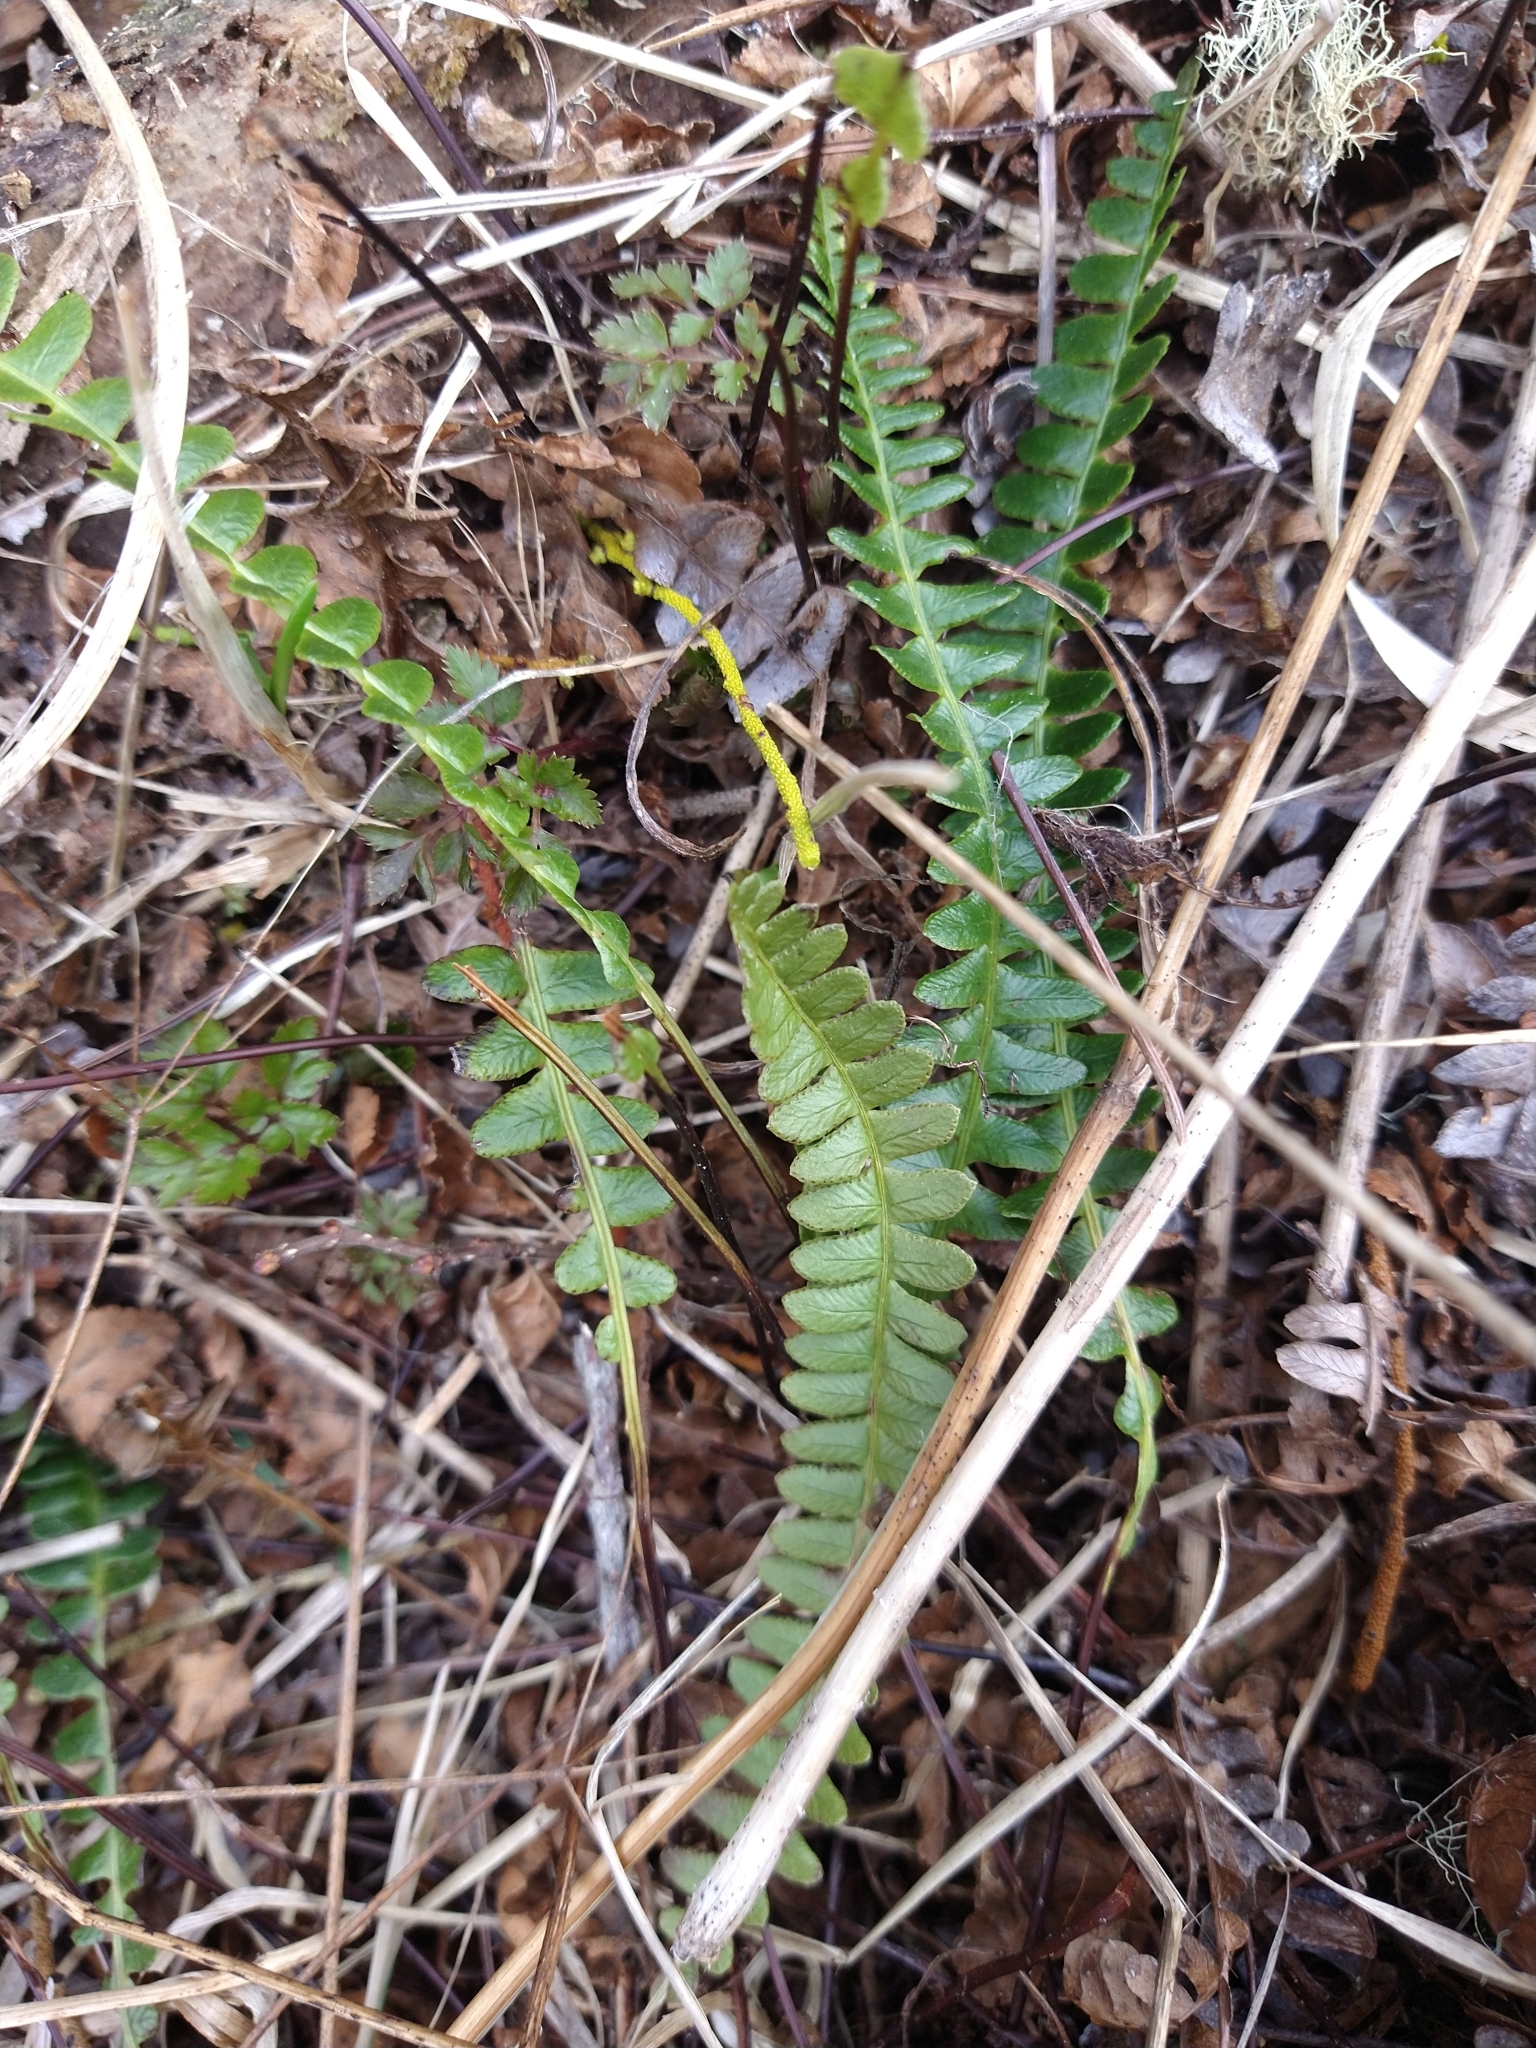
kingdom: Plantae
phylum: Tracheophyta
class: Polypodiopsida
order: Polypodiales
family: Blechnaceae
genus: Austroblechnum
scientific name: Austroblechnum penna-marina
